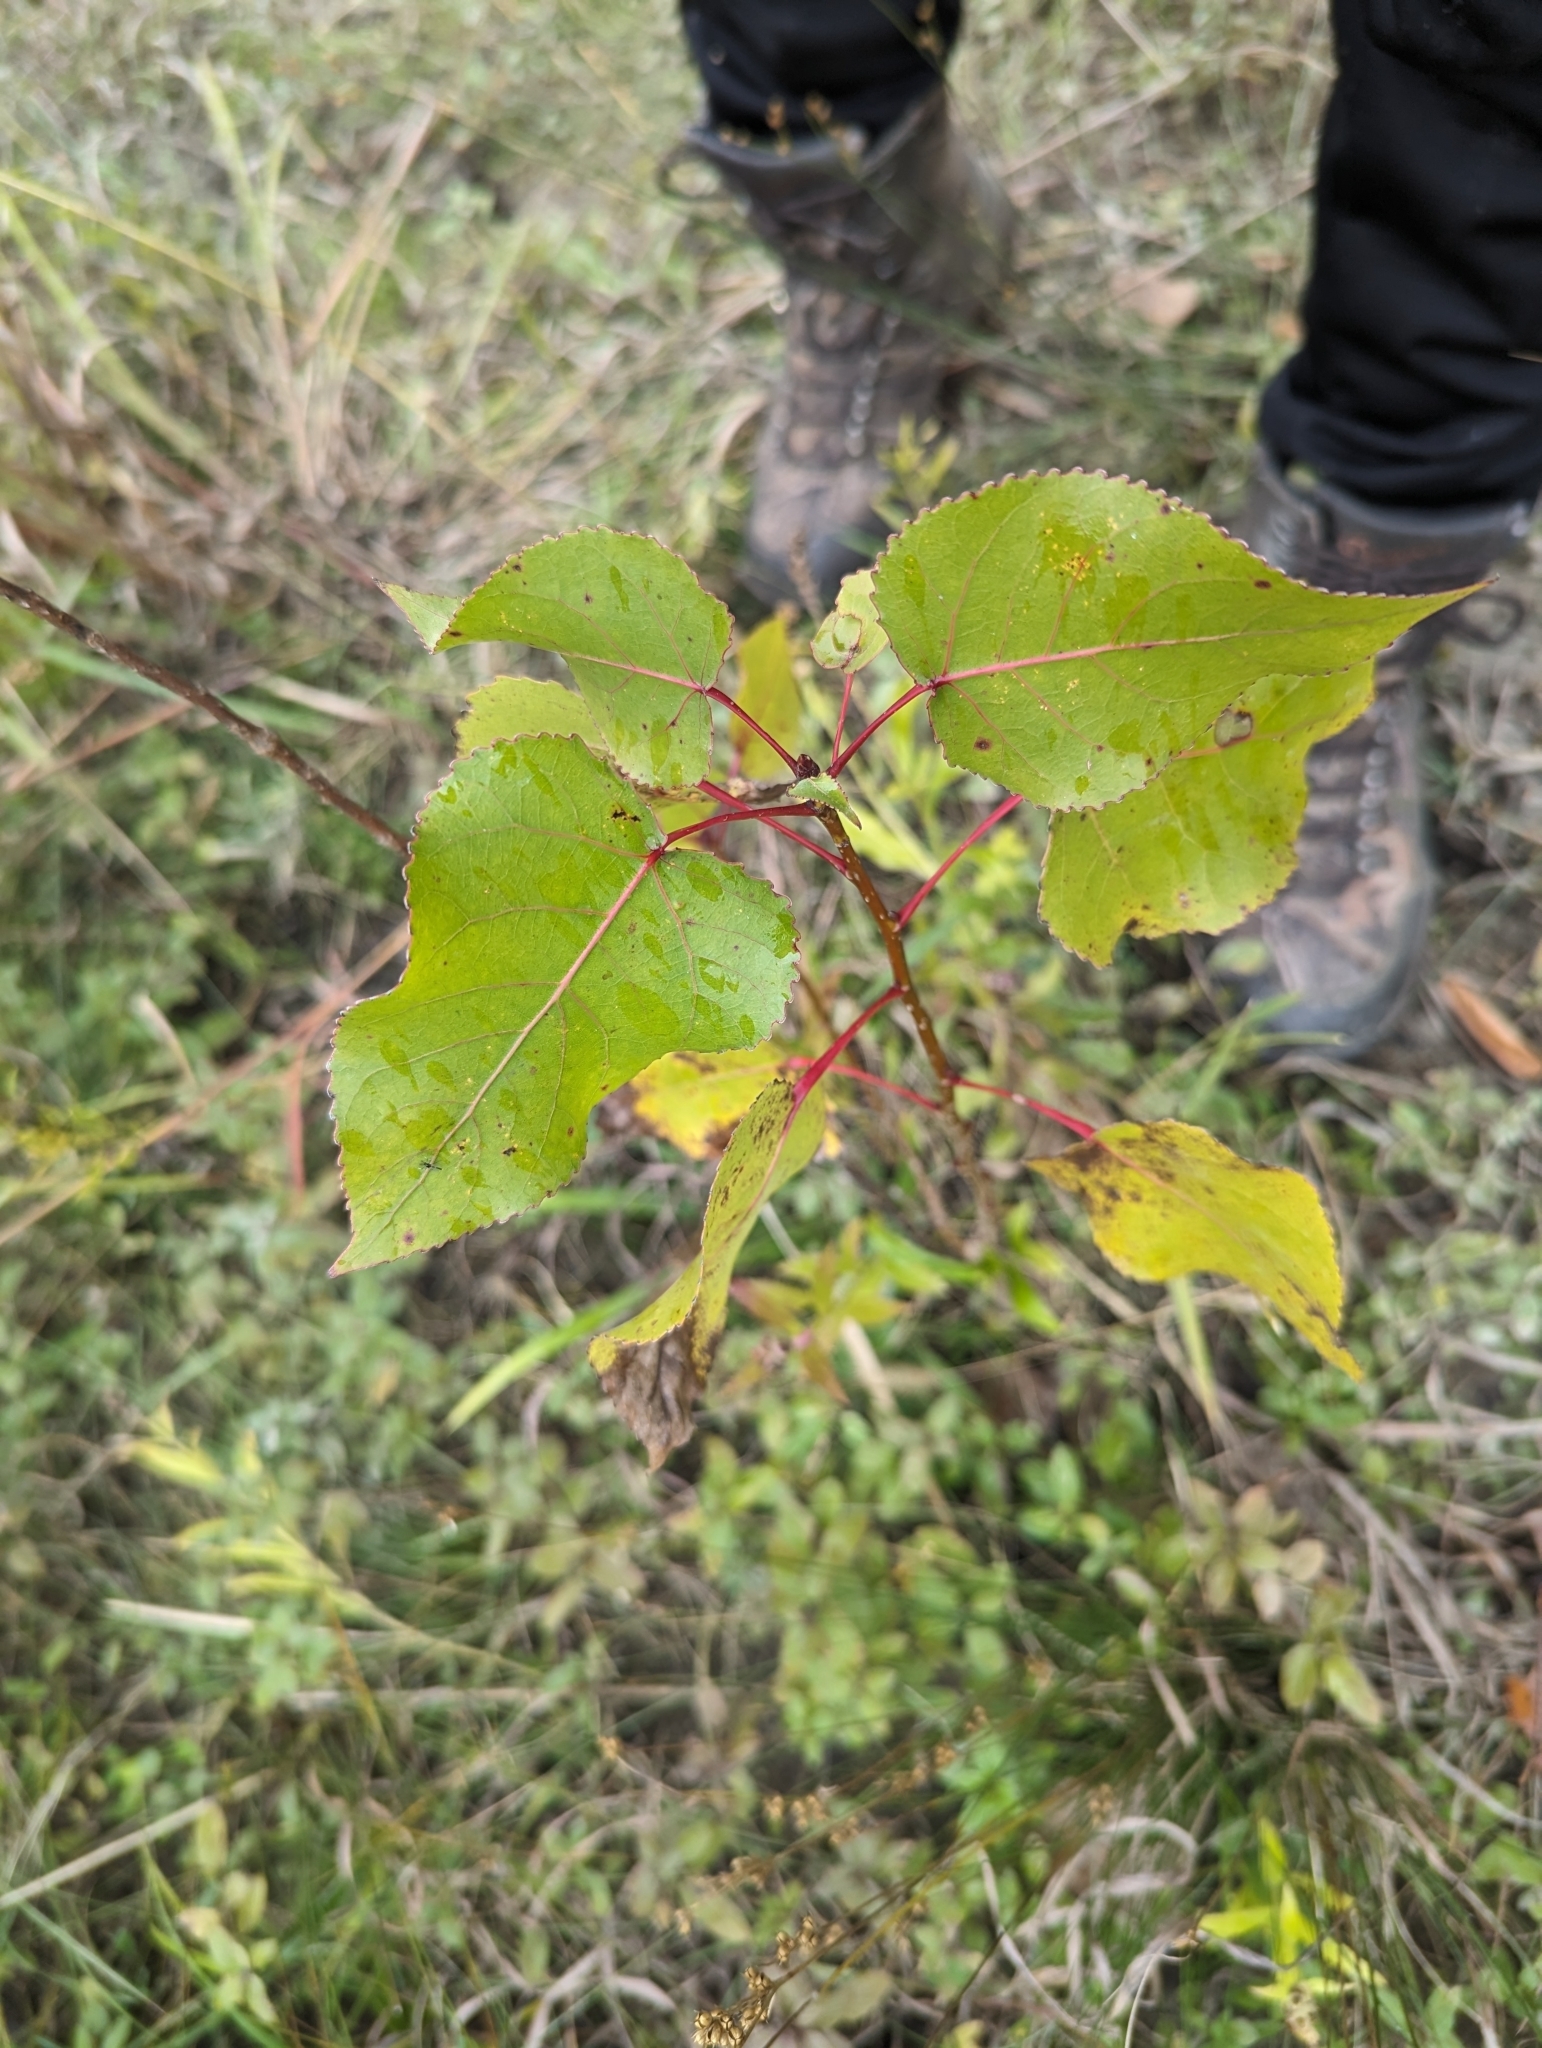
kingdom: Plantae
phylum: Tracheophyta
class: Magnoliopsida
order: Malpighiales
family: Salicaceae
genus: Populus
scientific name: Populus deltoides
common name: Eastern cottonwood
